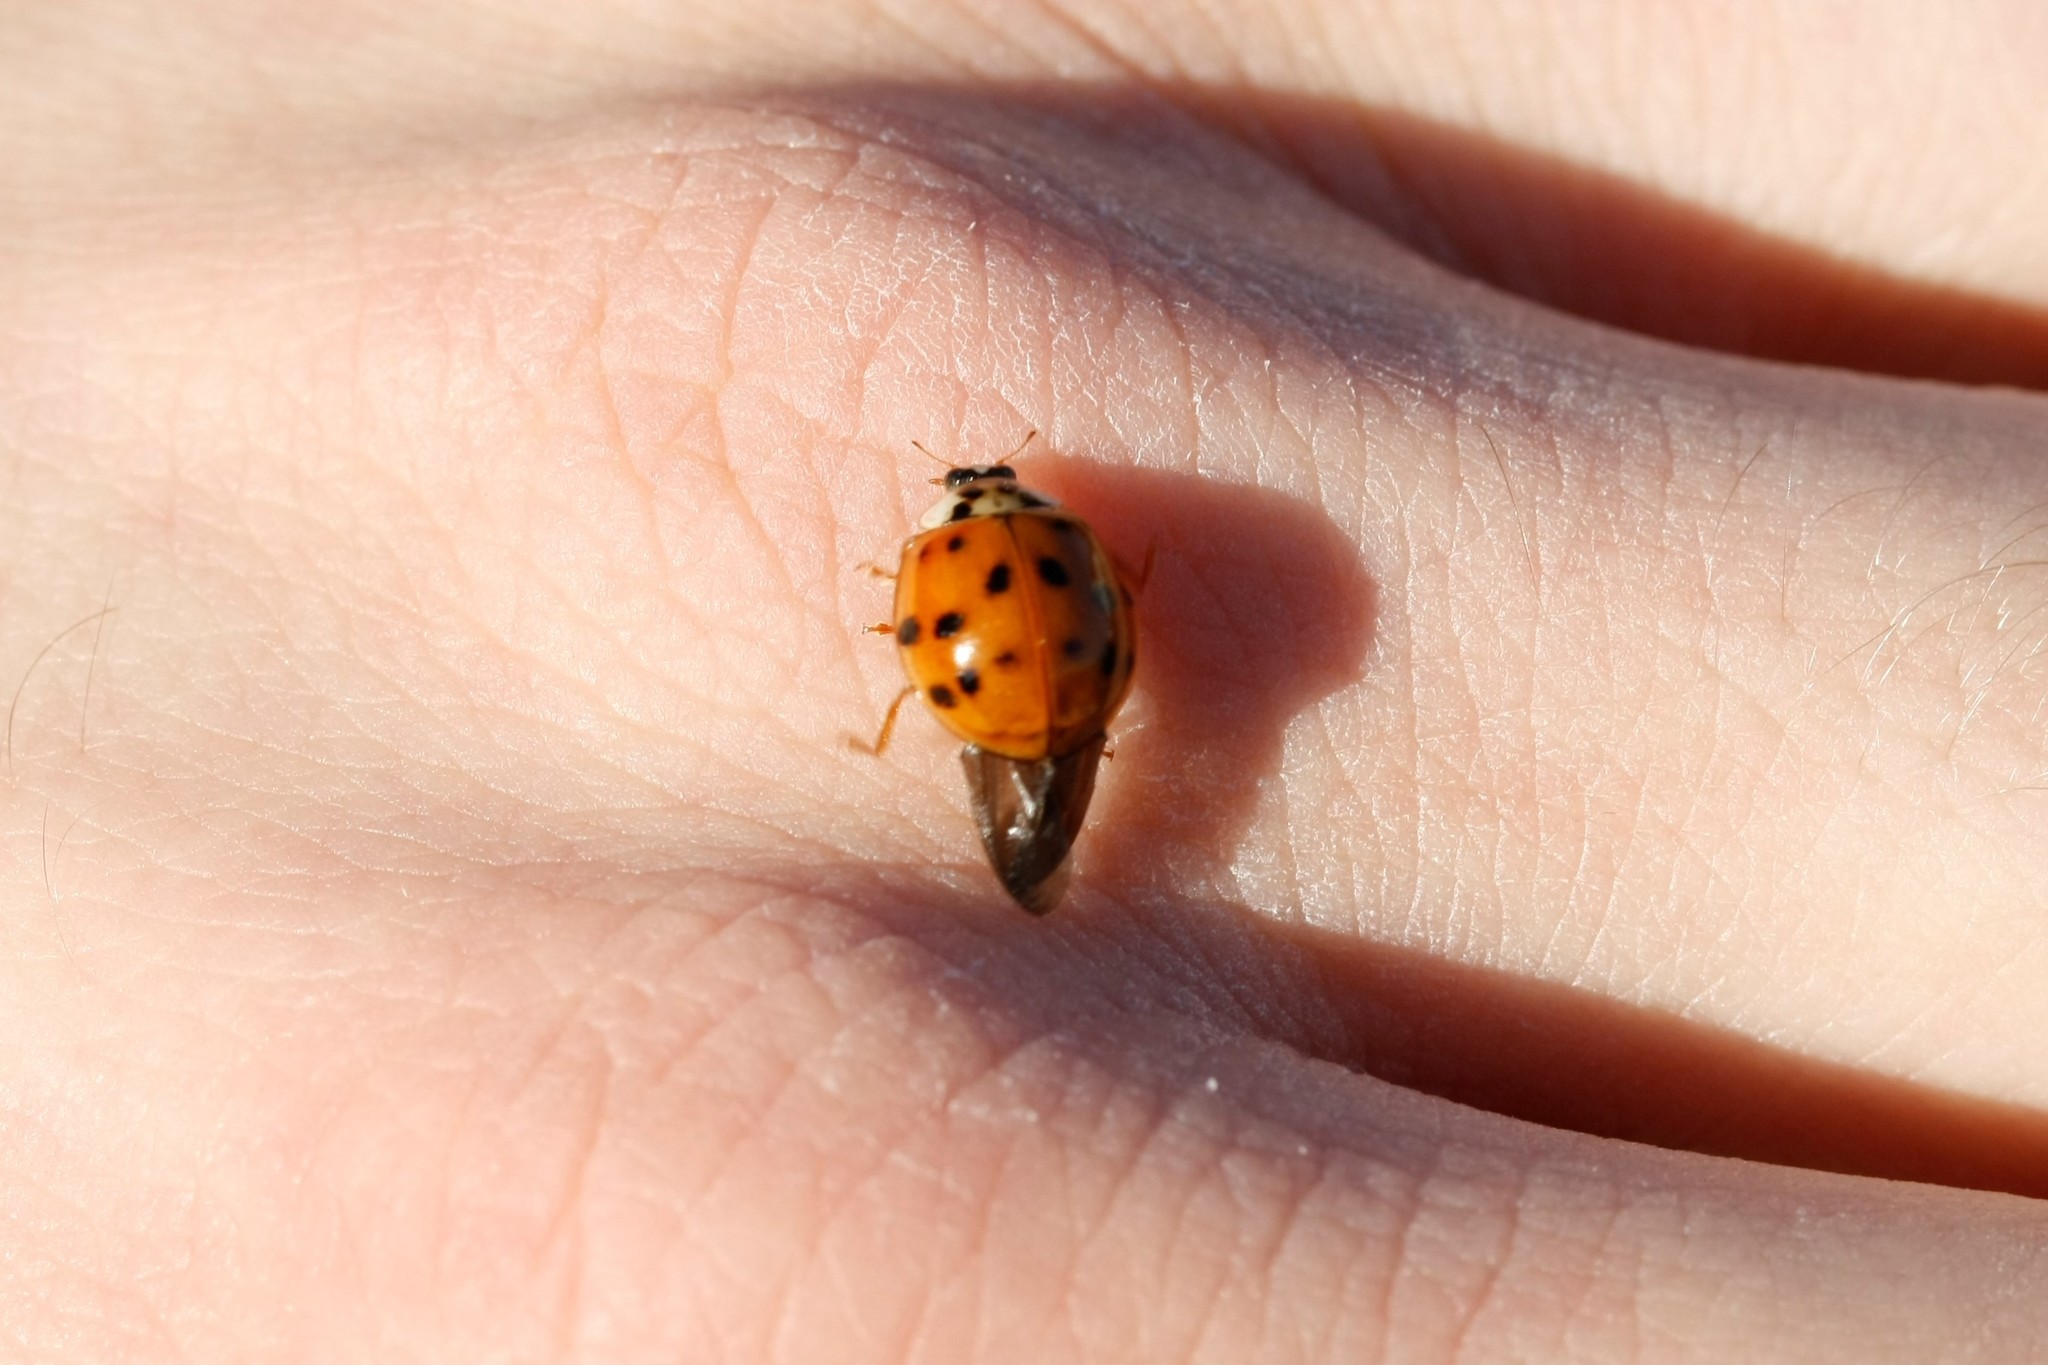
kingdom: Animalia
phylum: Arthropoda
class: Insecta
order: Coleoptera
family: Coccinellidae
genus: Harmonia
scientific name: Harmonia axyridis
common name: Harlequin ladybird
